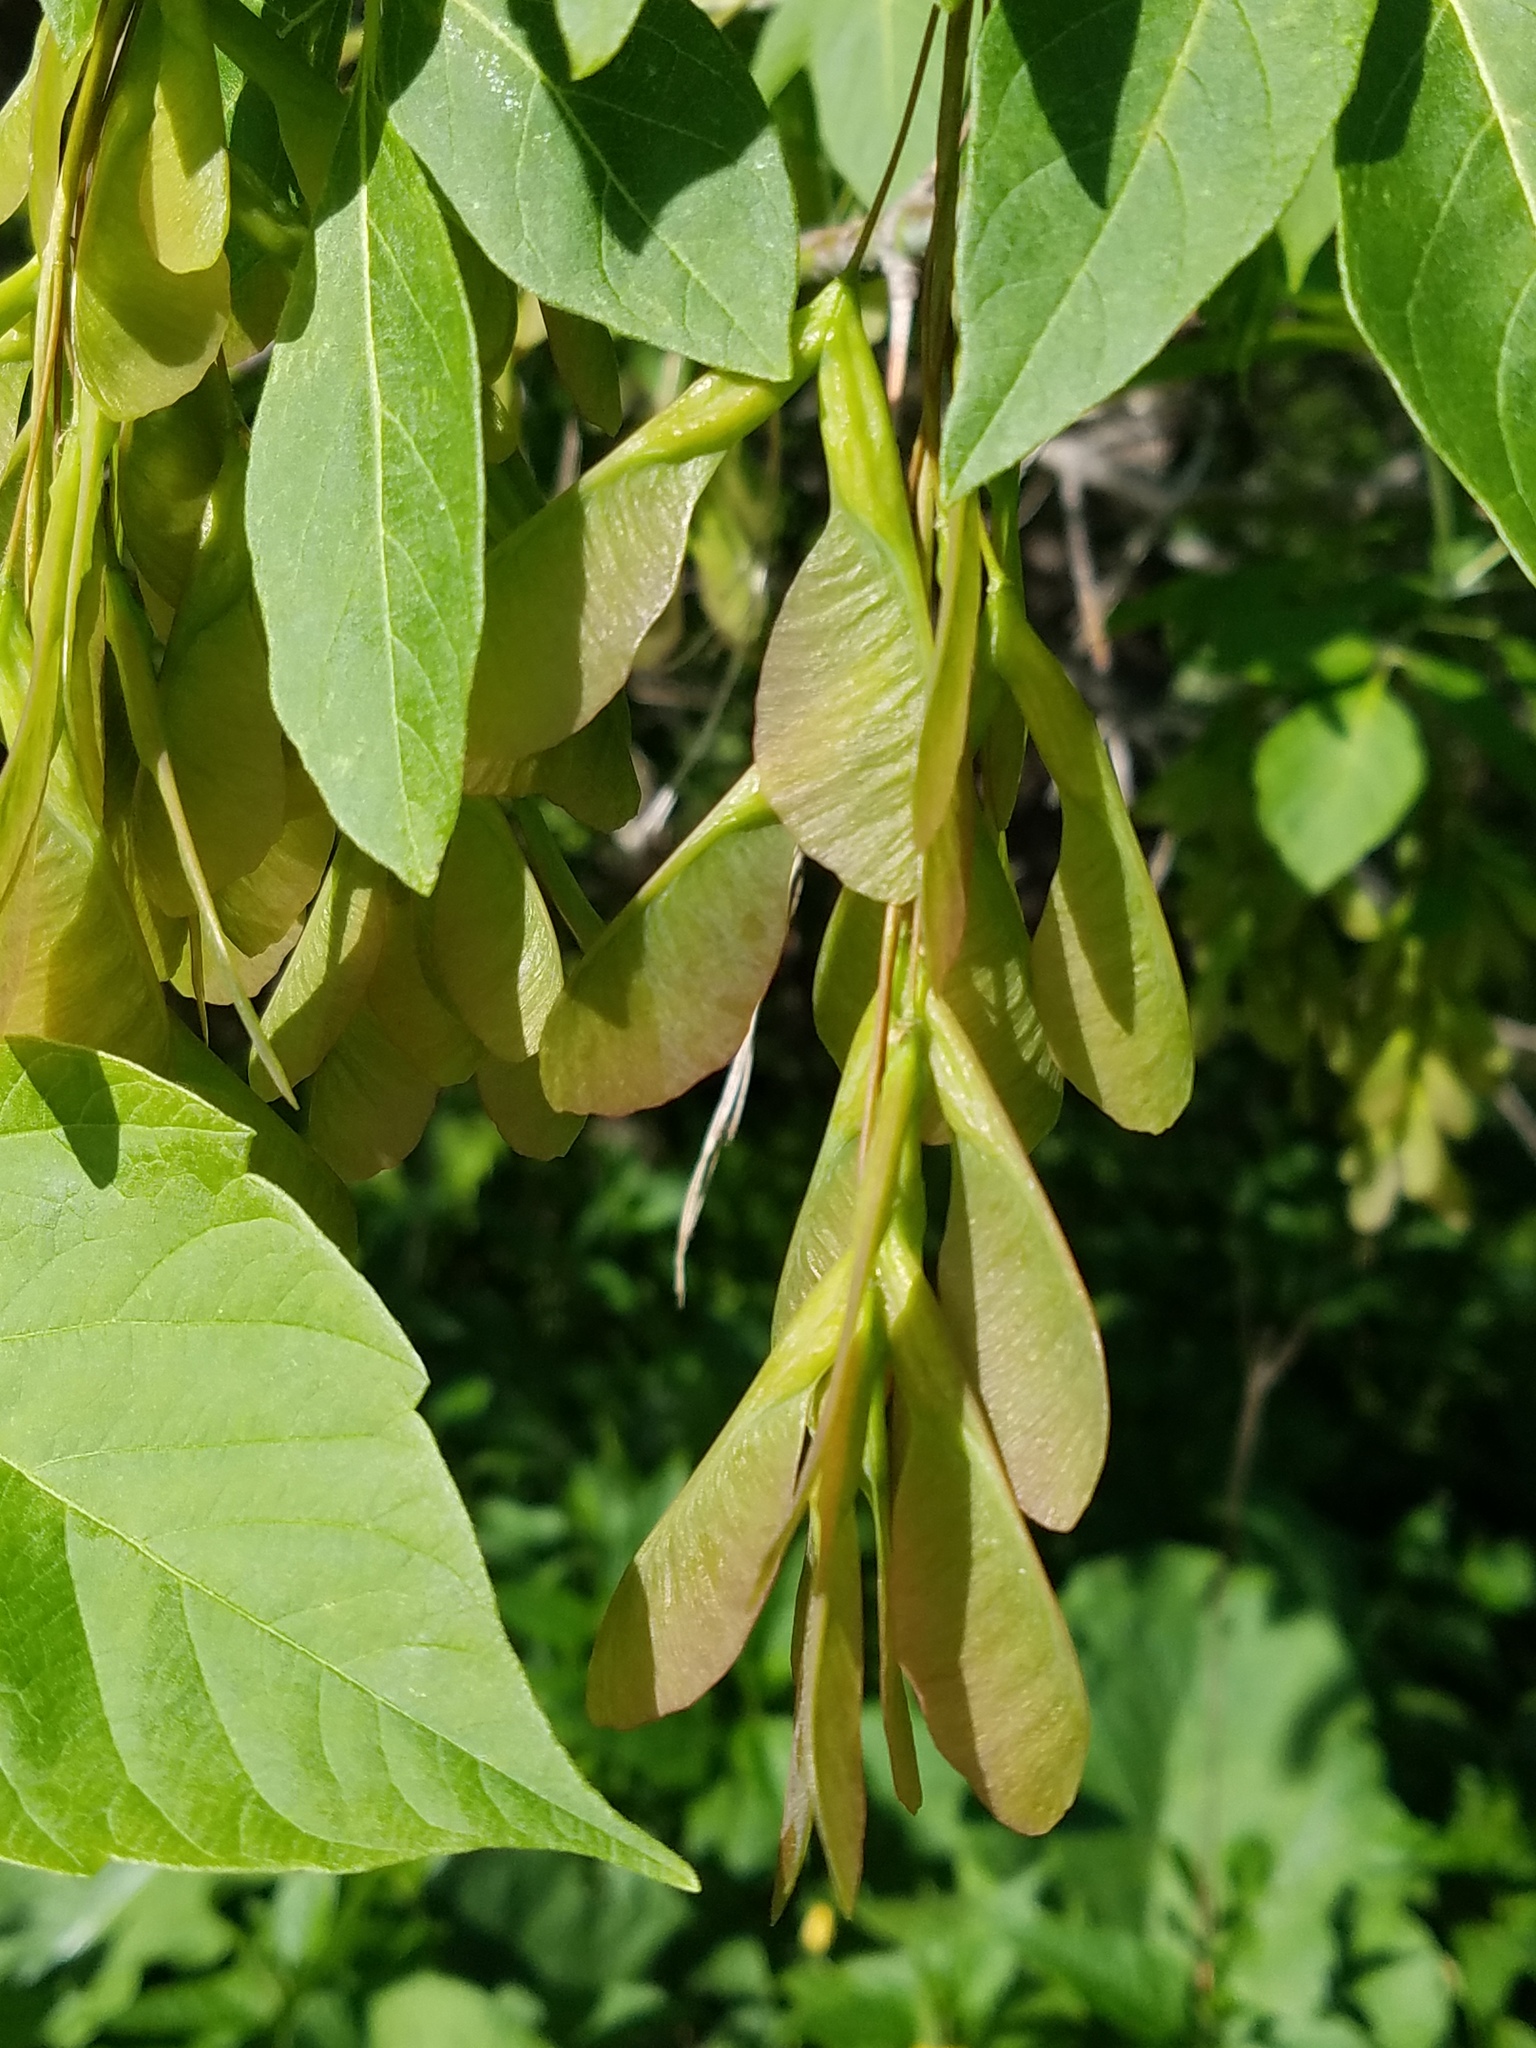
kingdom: Plantae
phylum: Tracheophyta
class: Magnoliopsida
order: Sapindales
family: Sapindaceae
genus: Acer
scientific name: Acer negundo
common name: Ashleaf maple
